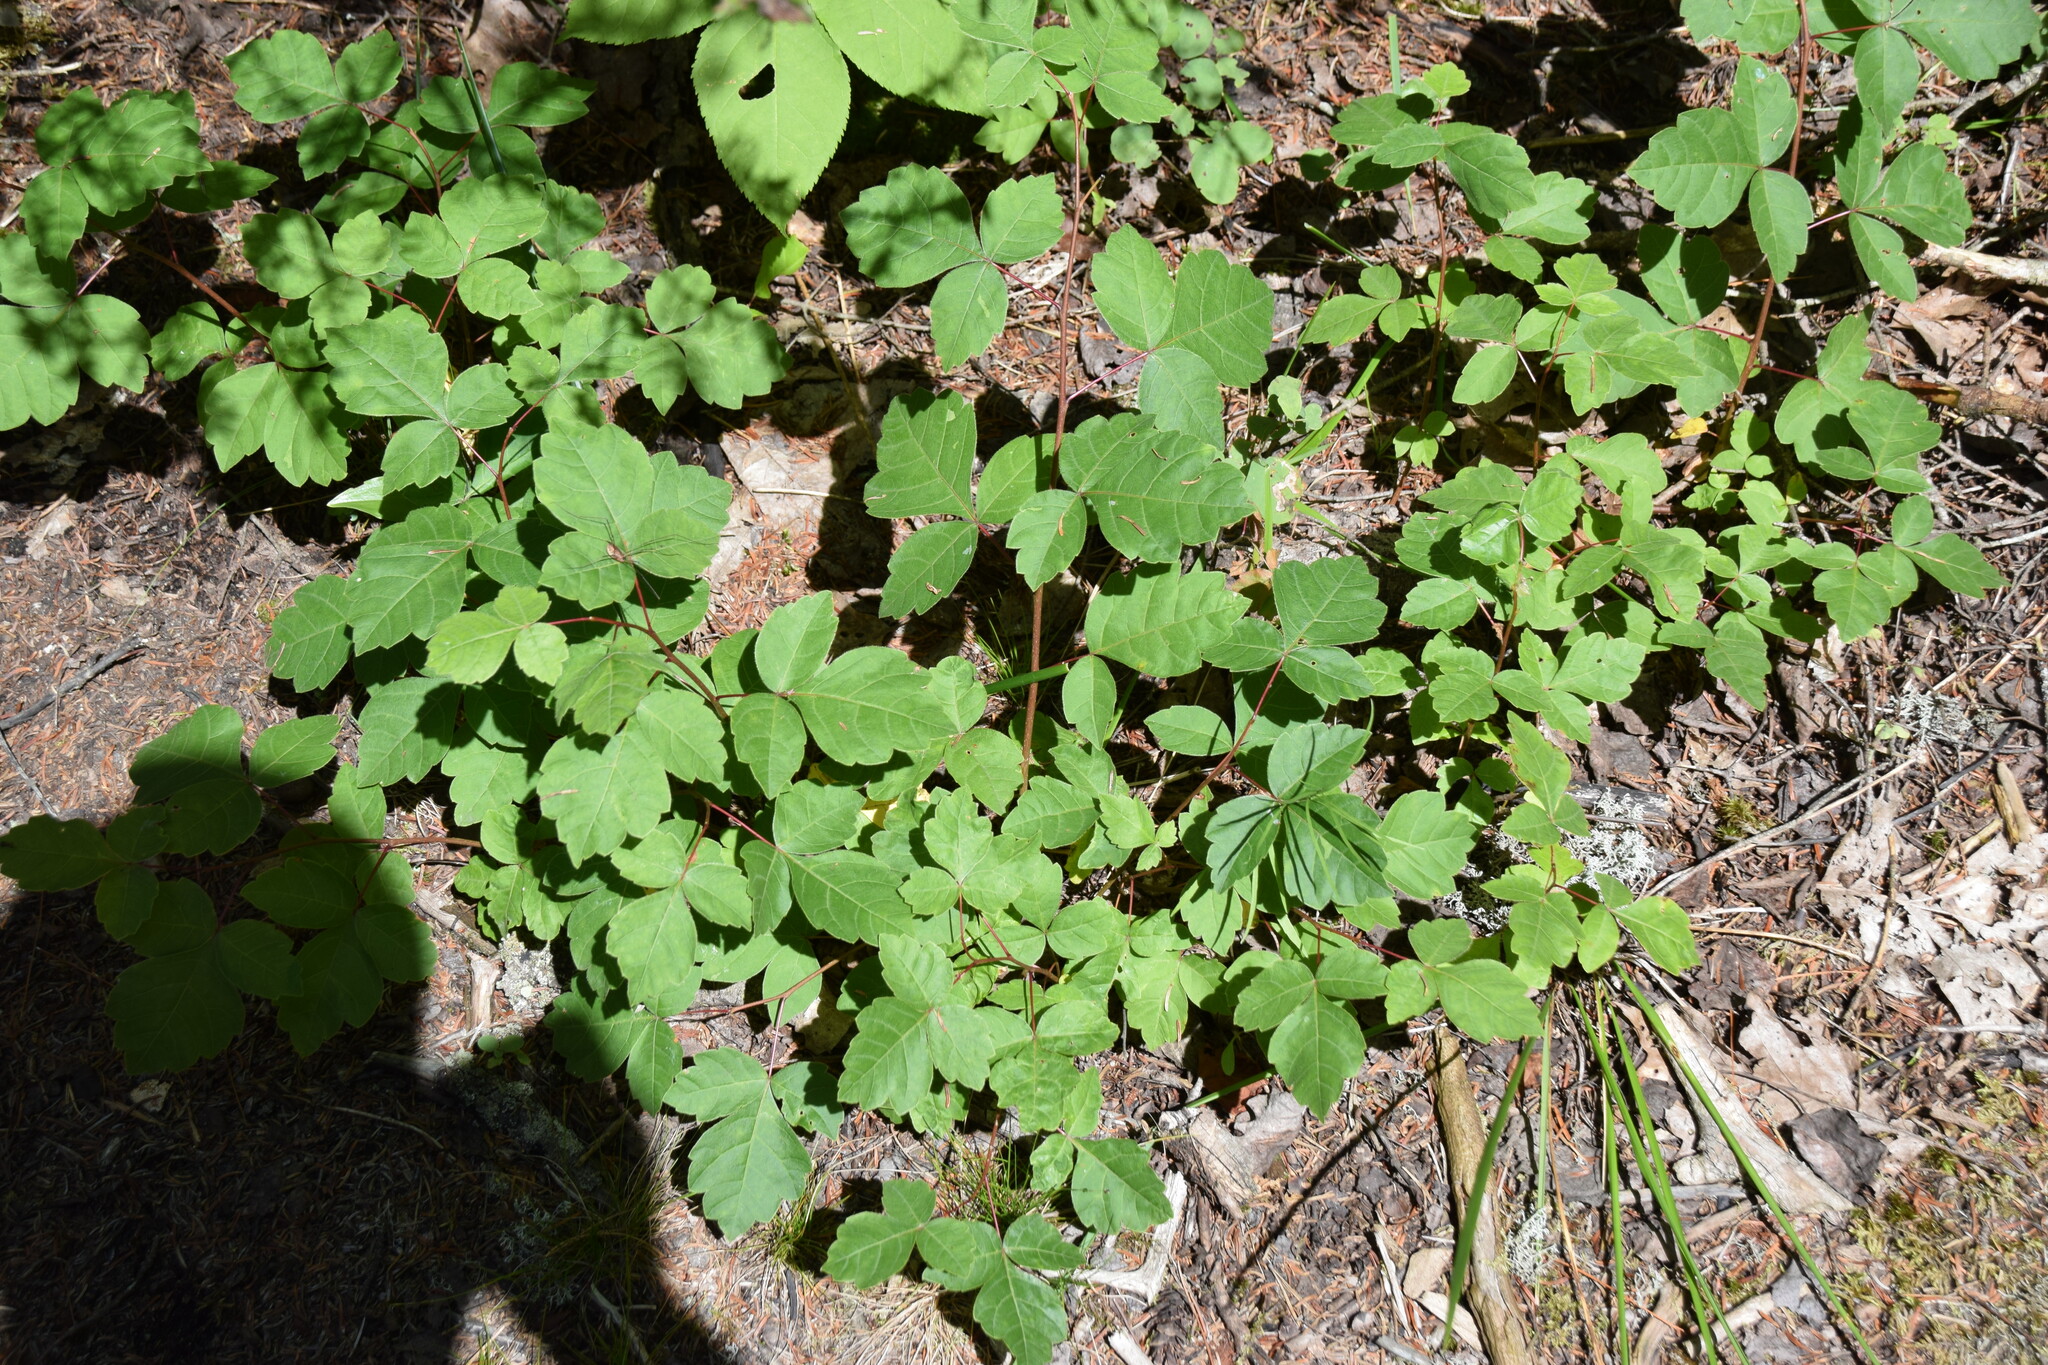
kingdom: Plantae
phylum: Tracheophyta
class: Magnoliopsida
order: Sapindales
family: Anacardiaceae
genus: Rhus
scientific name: Rhus aromatica
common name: Aromatic sumac
